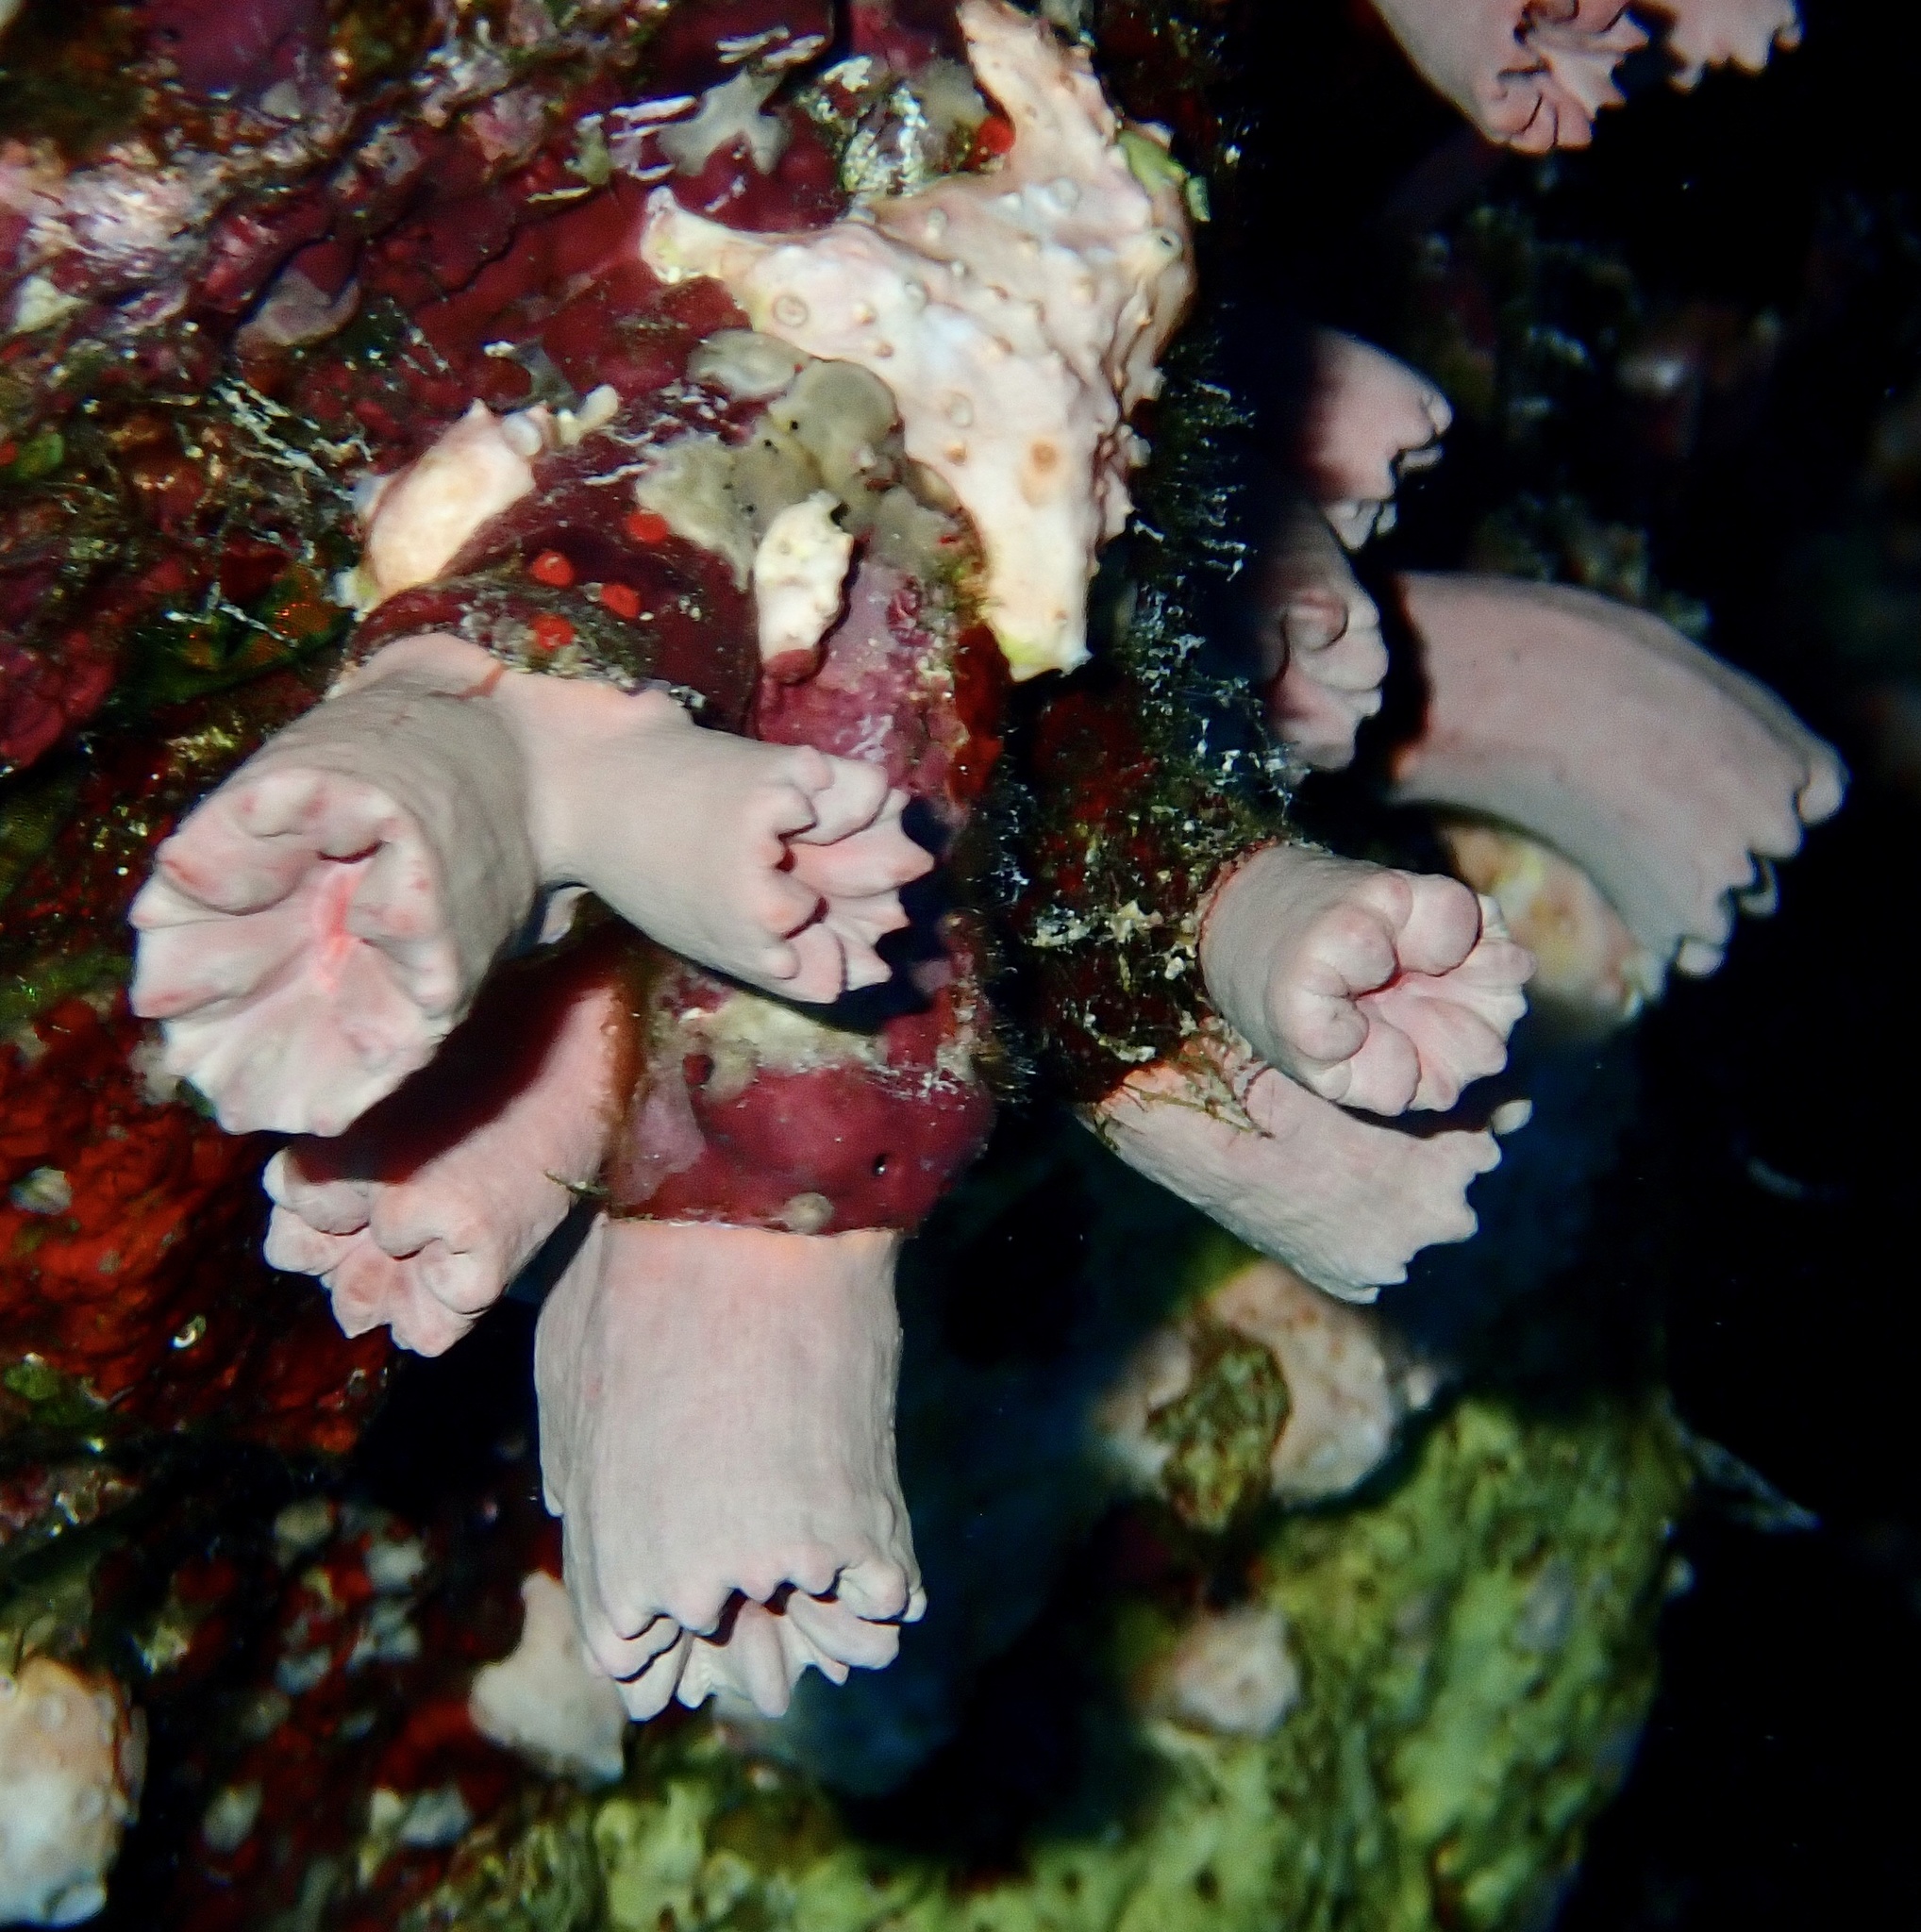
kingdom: Animalia
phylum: Cnidaria
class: Anthozoa
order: Scleractinia
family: Dendrophylliidae
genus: Cladopsammia
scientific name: Cladopsammia gracilis
